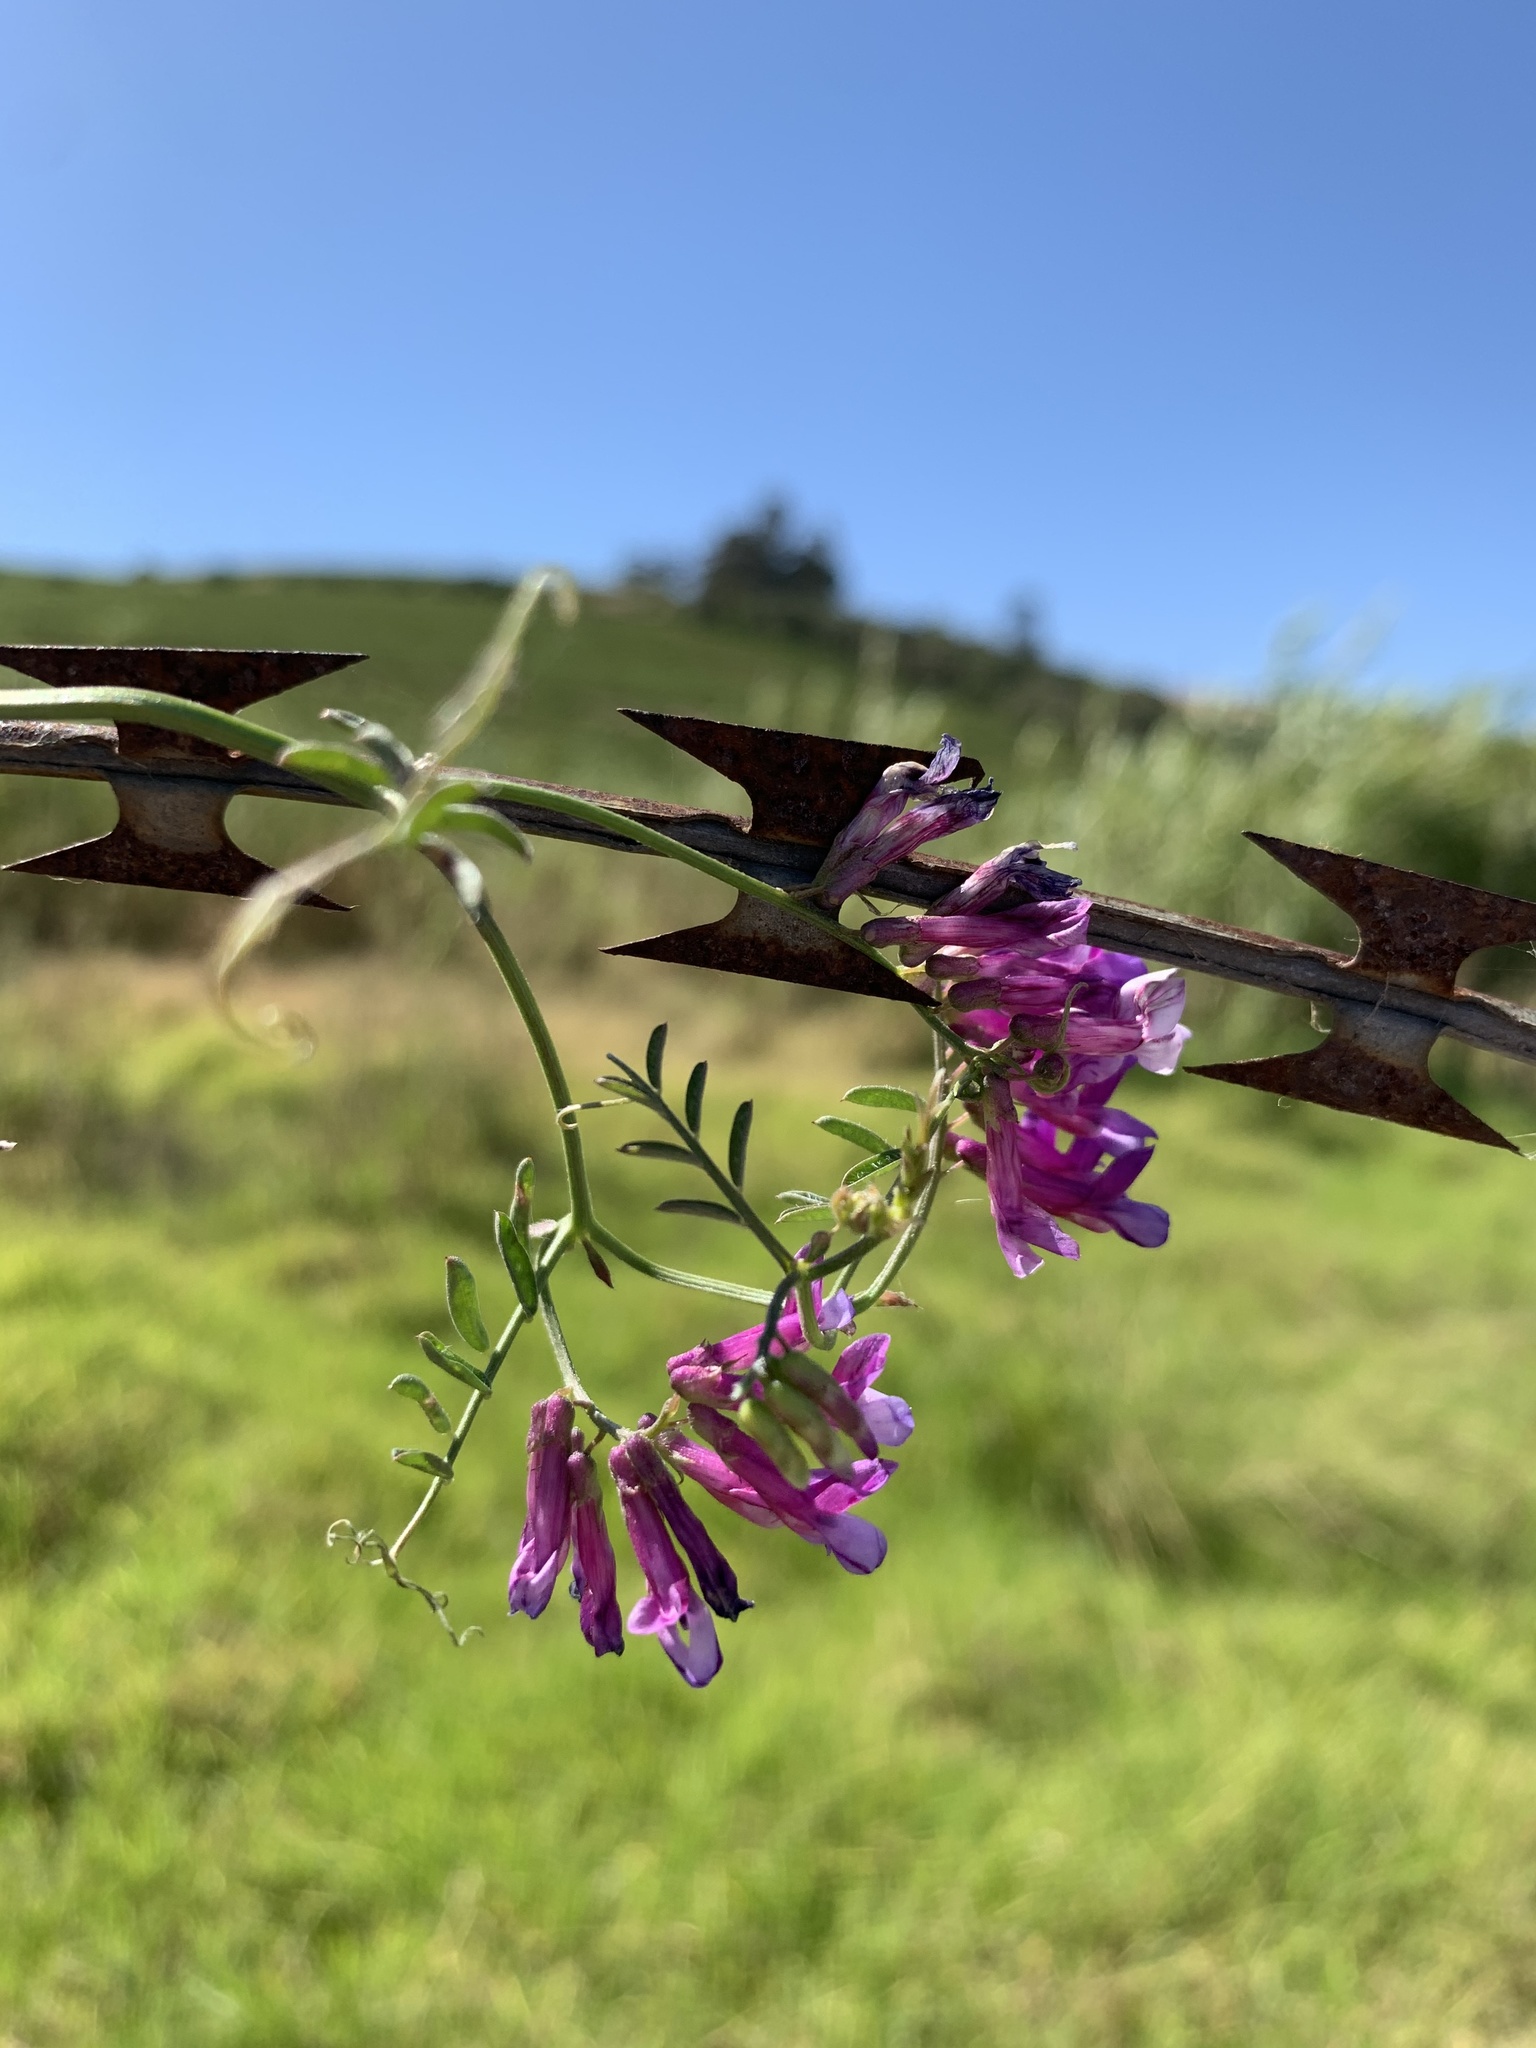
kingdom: Plantae
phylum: Tracheophyta
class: Magnoliopsida
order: Fabales
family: Fabaceae
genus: Vicia
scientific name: Vicia eriocarpa
